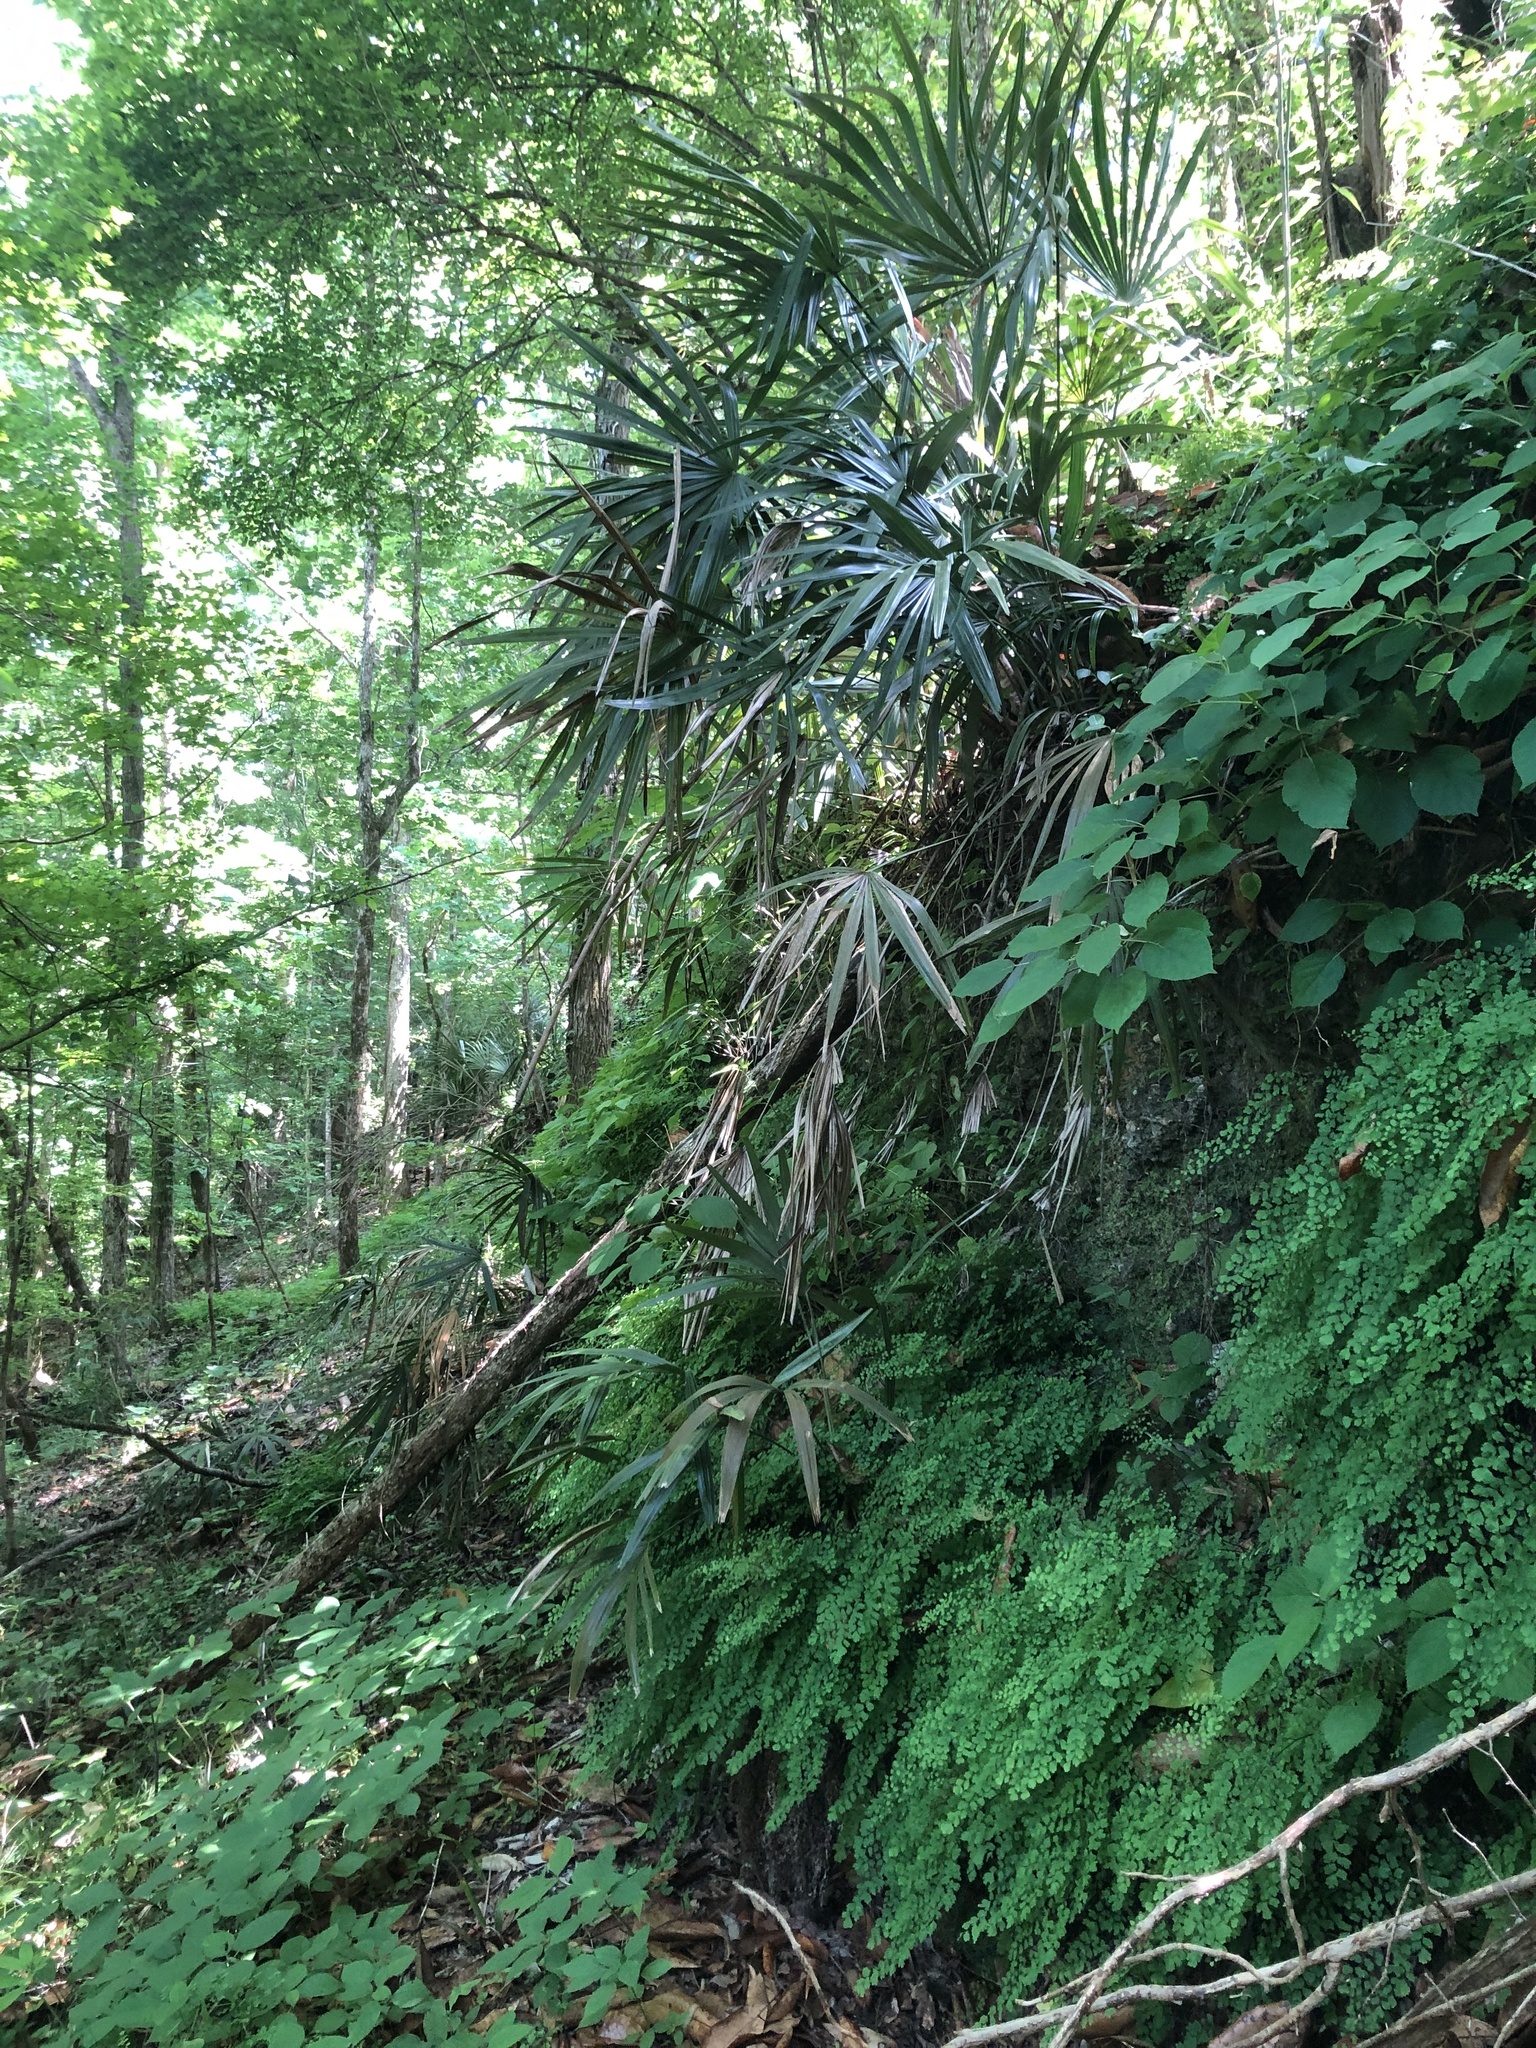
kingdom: Plantae
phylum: Tracheophyta
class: Liliopsida
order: Arecales
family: Arecaceae
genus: Rhapidophyllum
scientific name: Rhapidophyllum hystrix
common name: Porcupine palm
